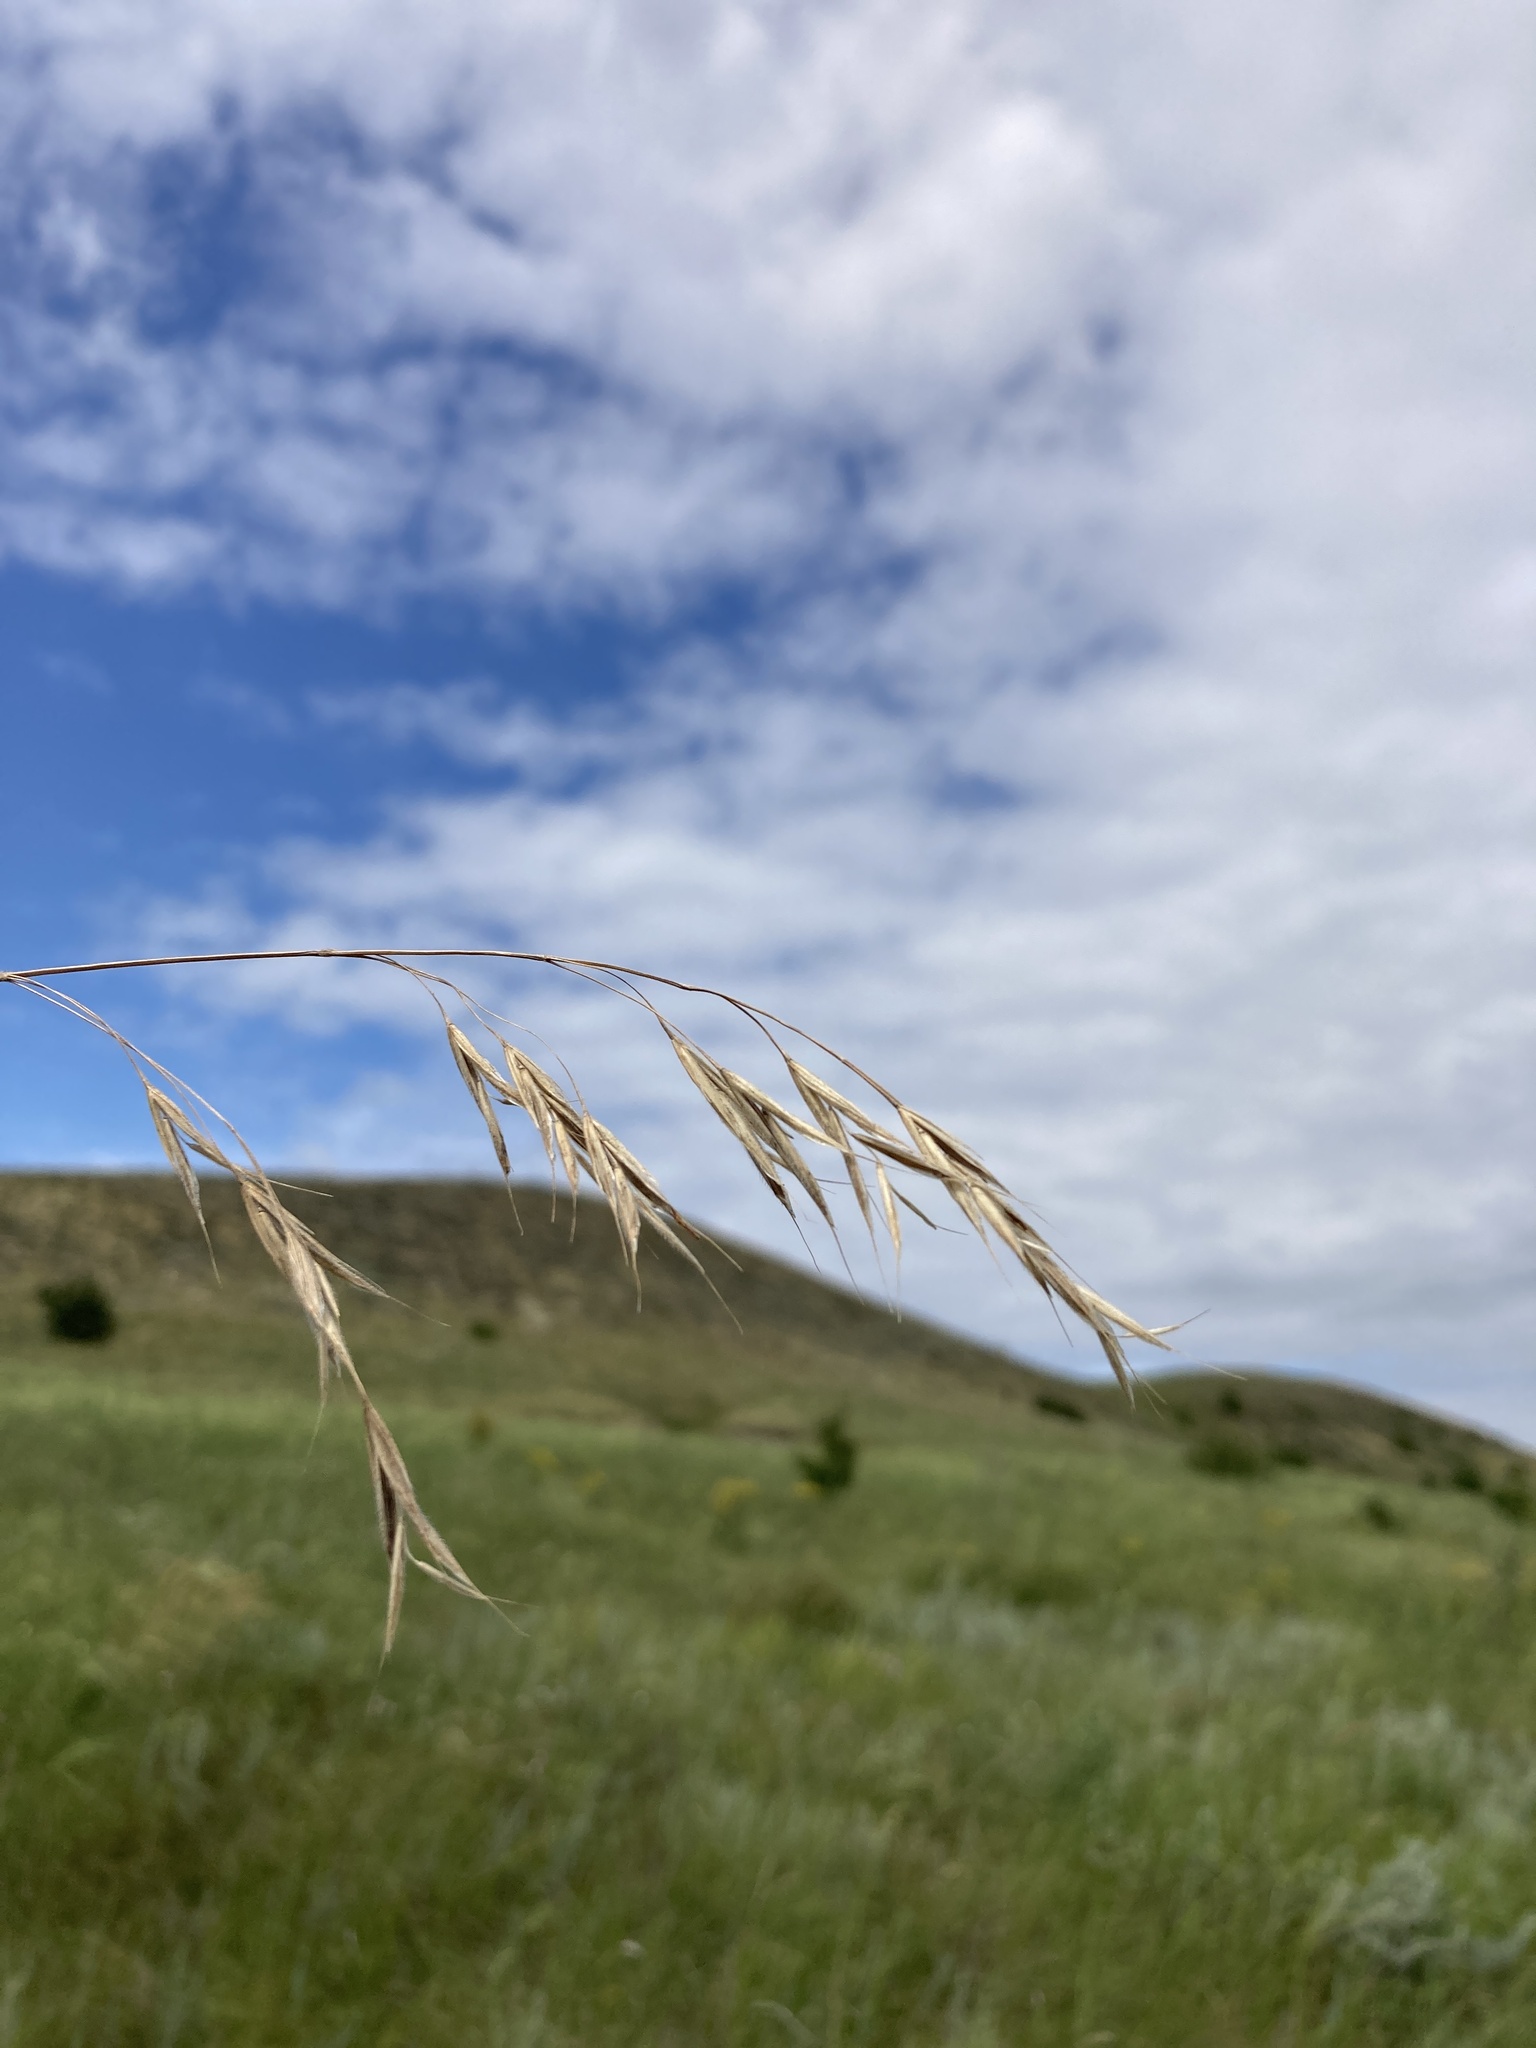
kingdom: Plantae
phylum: Tracheophyta
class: Liliopsida
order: Poales
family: Poaceae
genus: Bromus
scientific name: Bromus riparius
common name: Meadow brome
